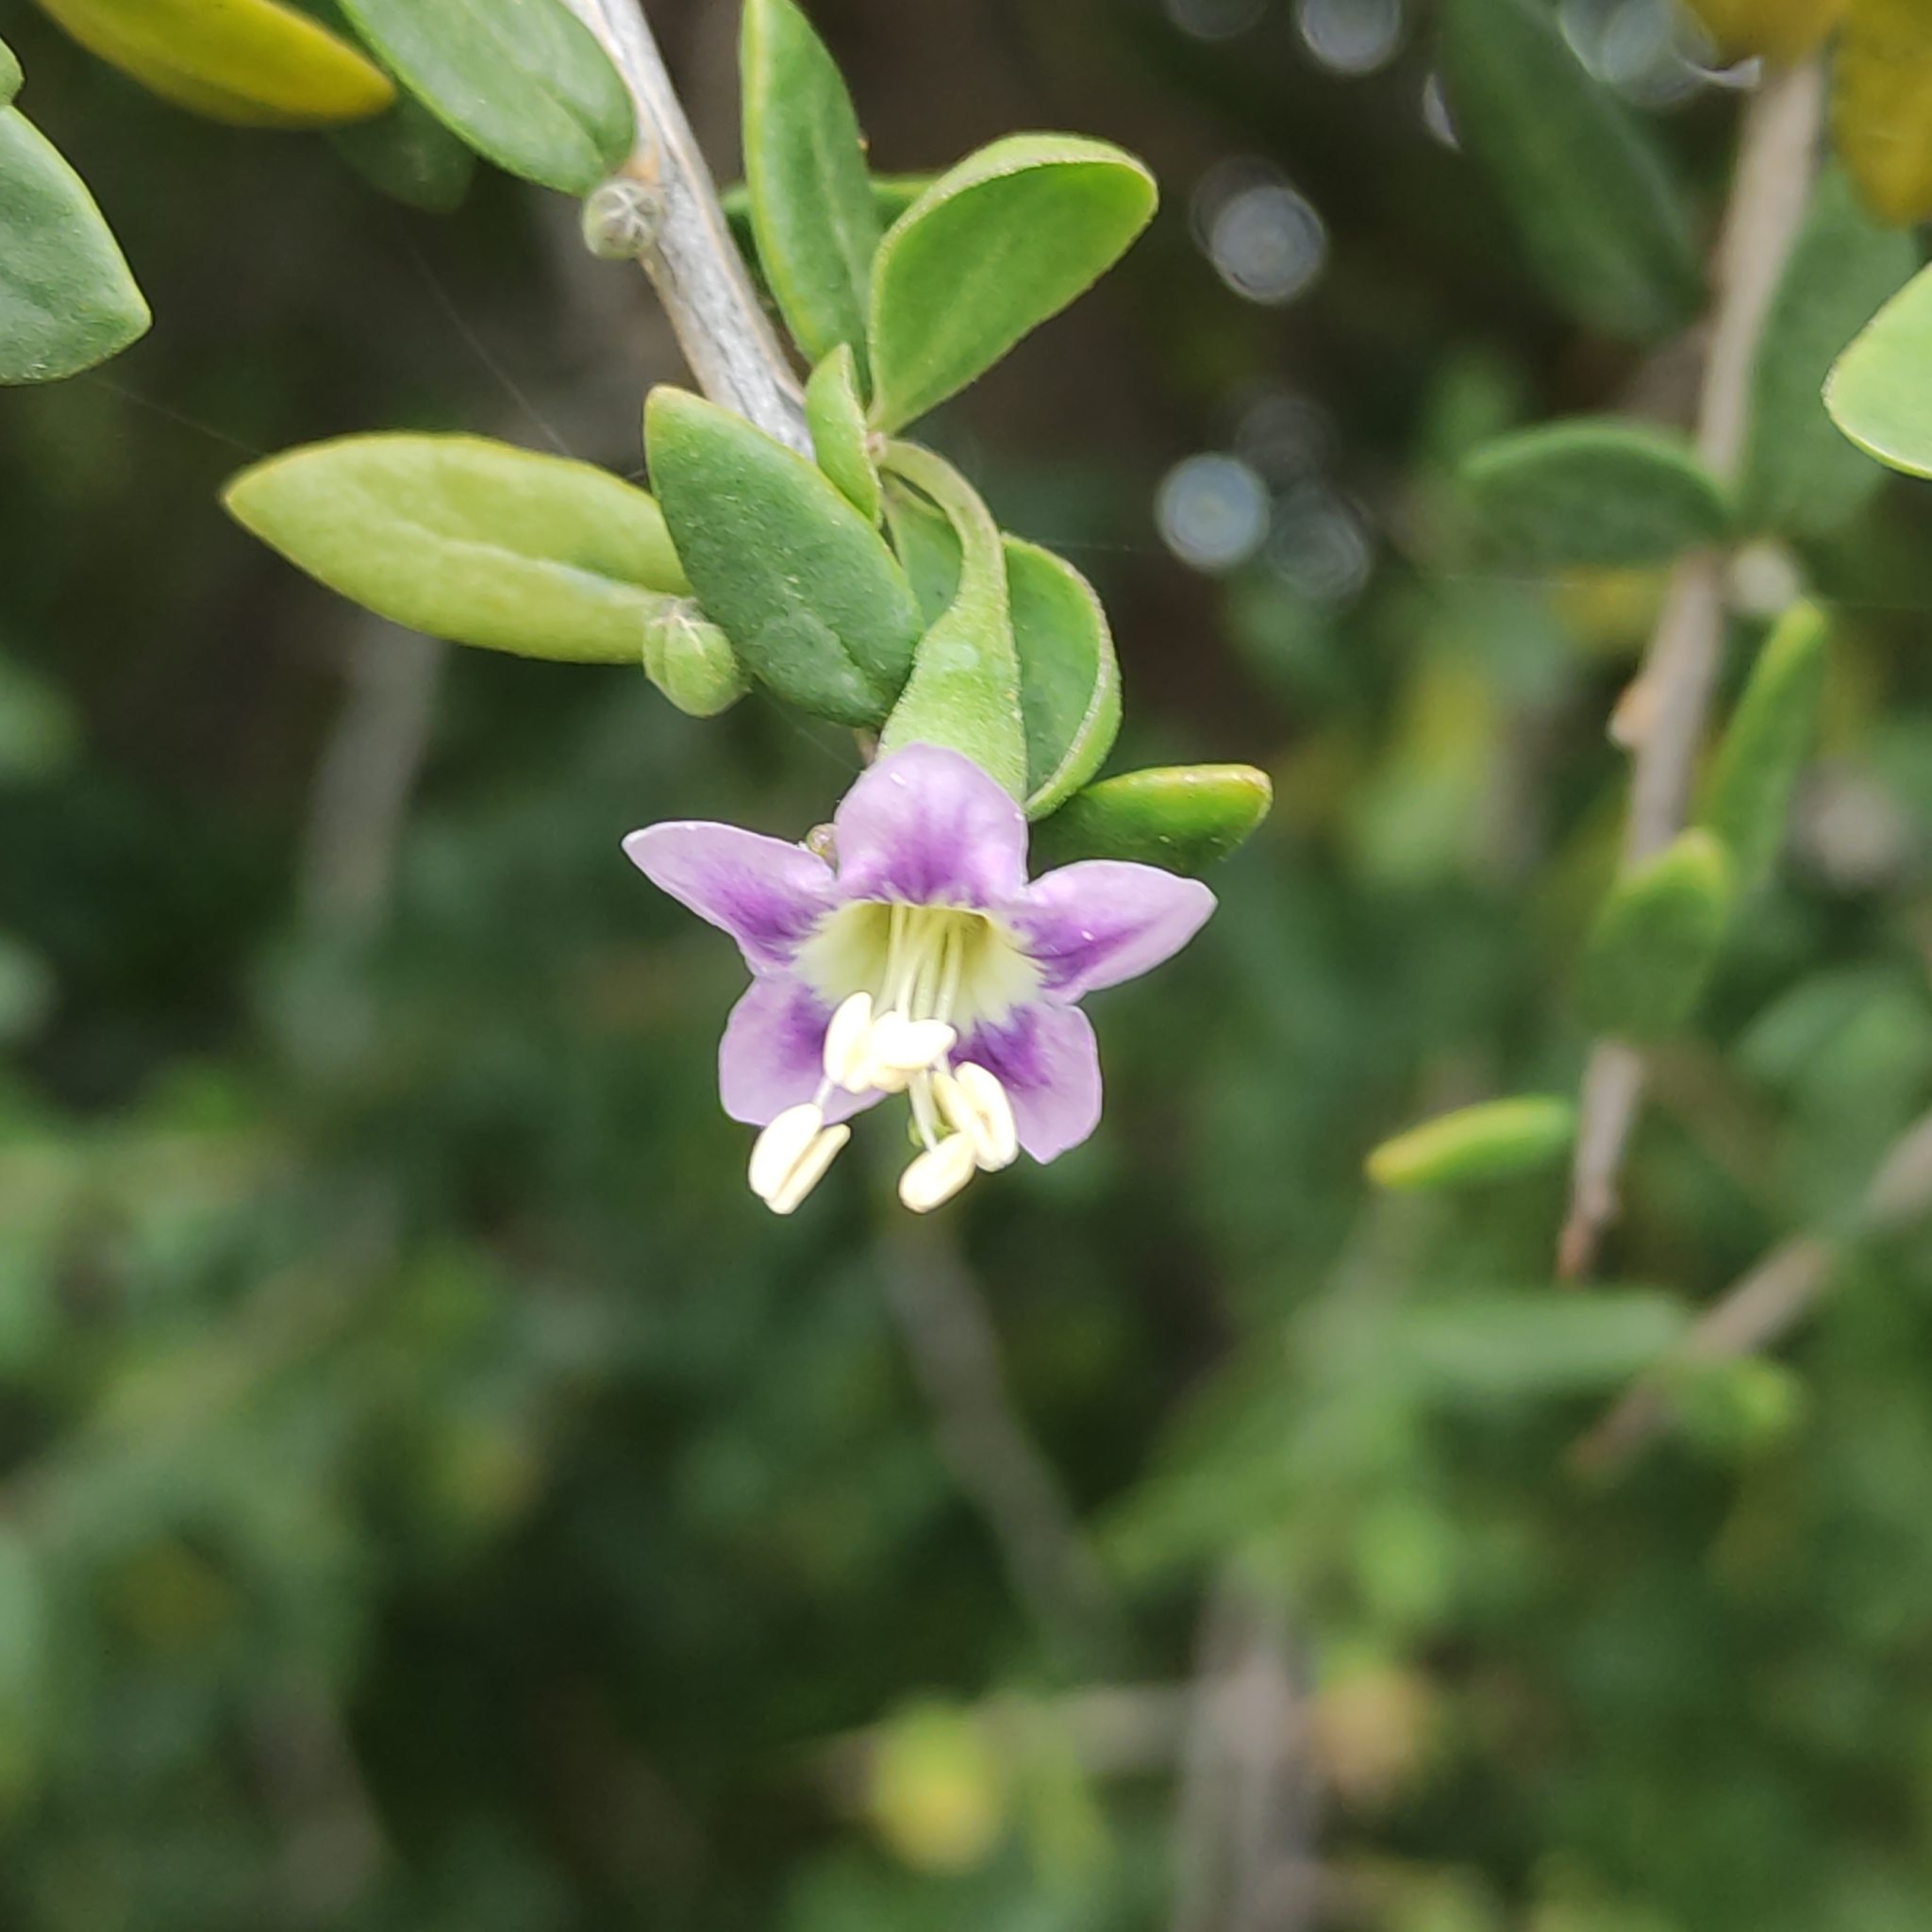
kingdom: Plantae
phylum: Tracheophyta
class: Magnoliopsida
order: Solanales
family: Solanaceae
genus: Lycium
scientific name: Lycium ferocissimum
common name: African boxthorn
